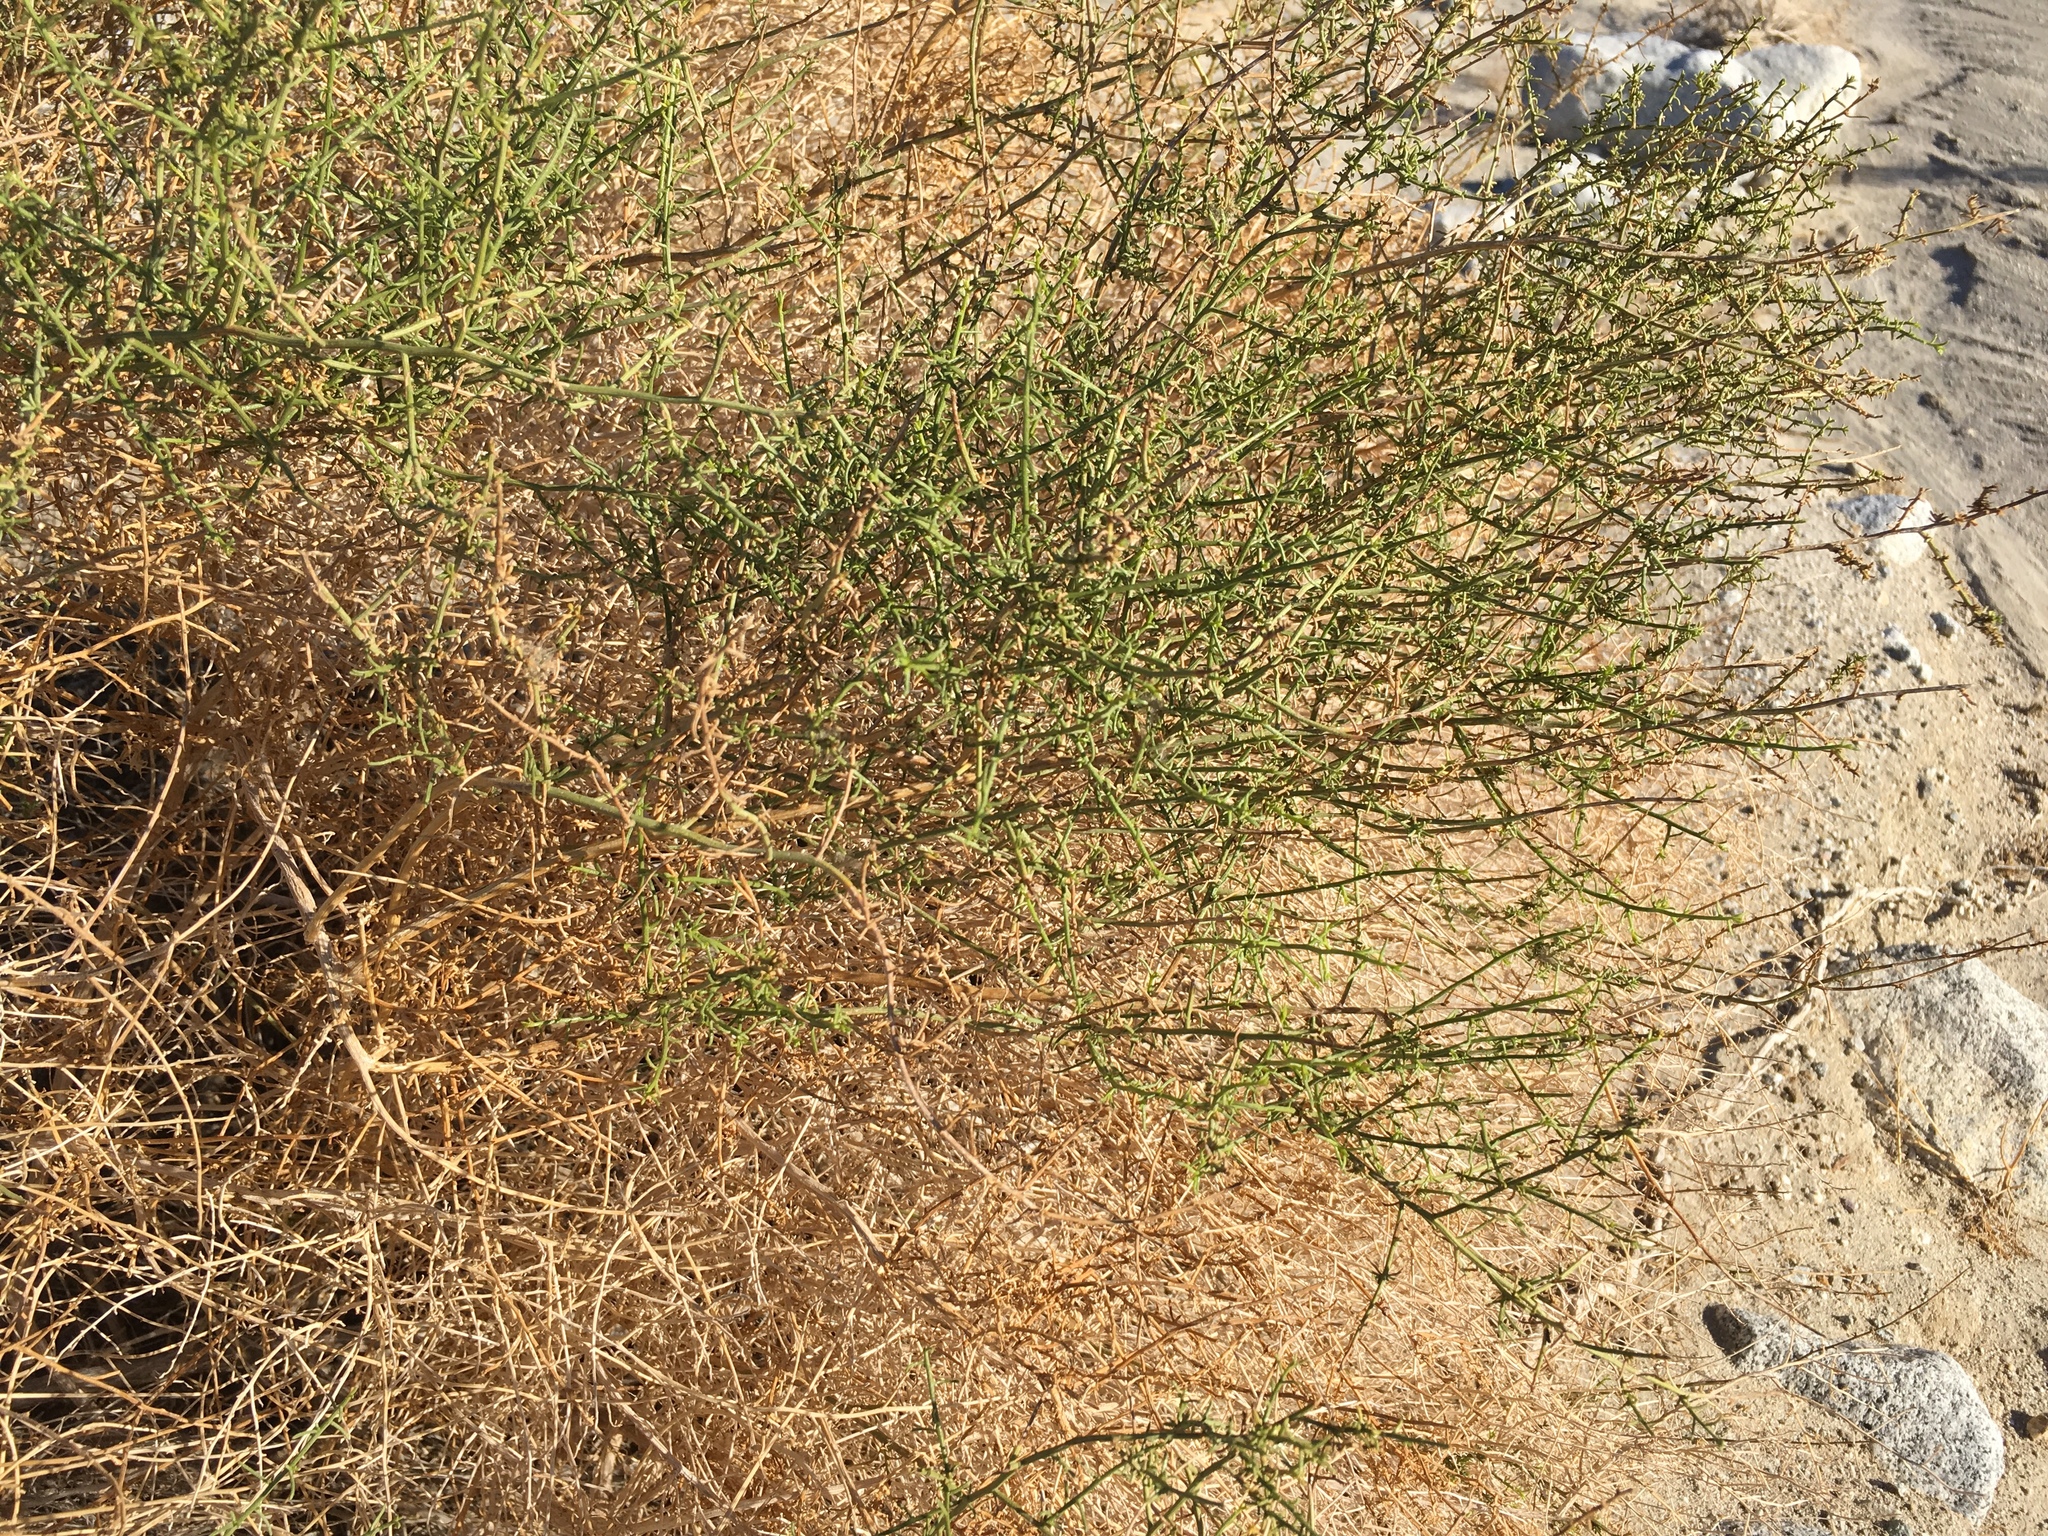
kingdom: Plantae
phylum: Tracheophyta
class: Magnoliopsida
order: Asterales
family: Asteraceae
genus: Ambrosia
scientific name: Ambrosia salsola
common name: Burrobrush
